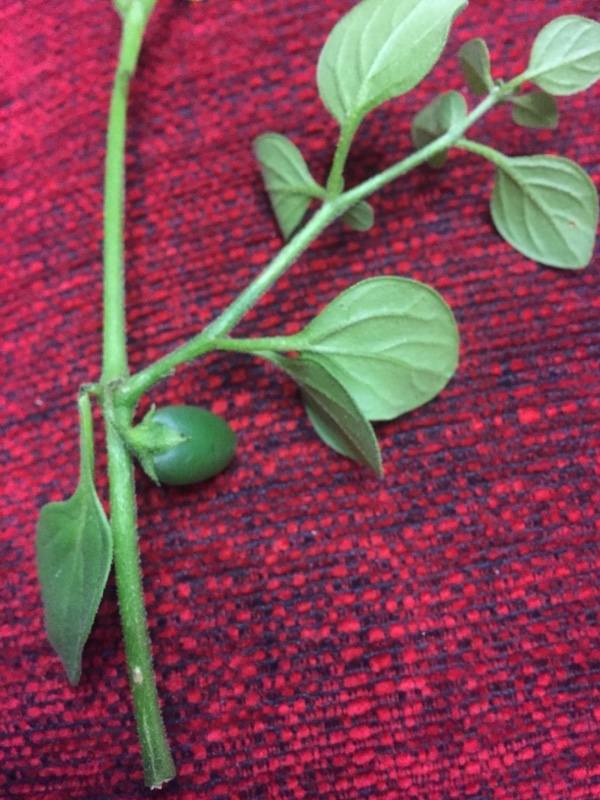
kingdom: Plantae
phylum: Tracheophyta
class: Magnoliopsida
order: Solanales
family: Solanaceae
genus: Salpichroa
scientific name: Salpichroa origanifolia
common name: Lily-of-the-valley-vine
